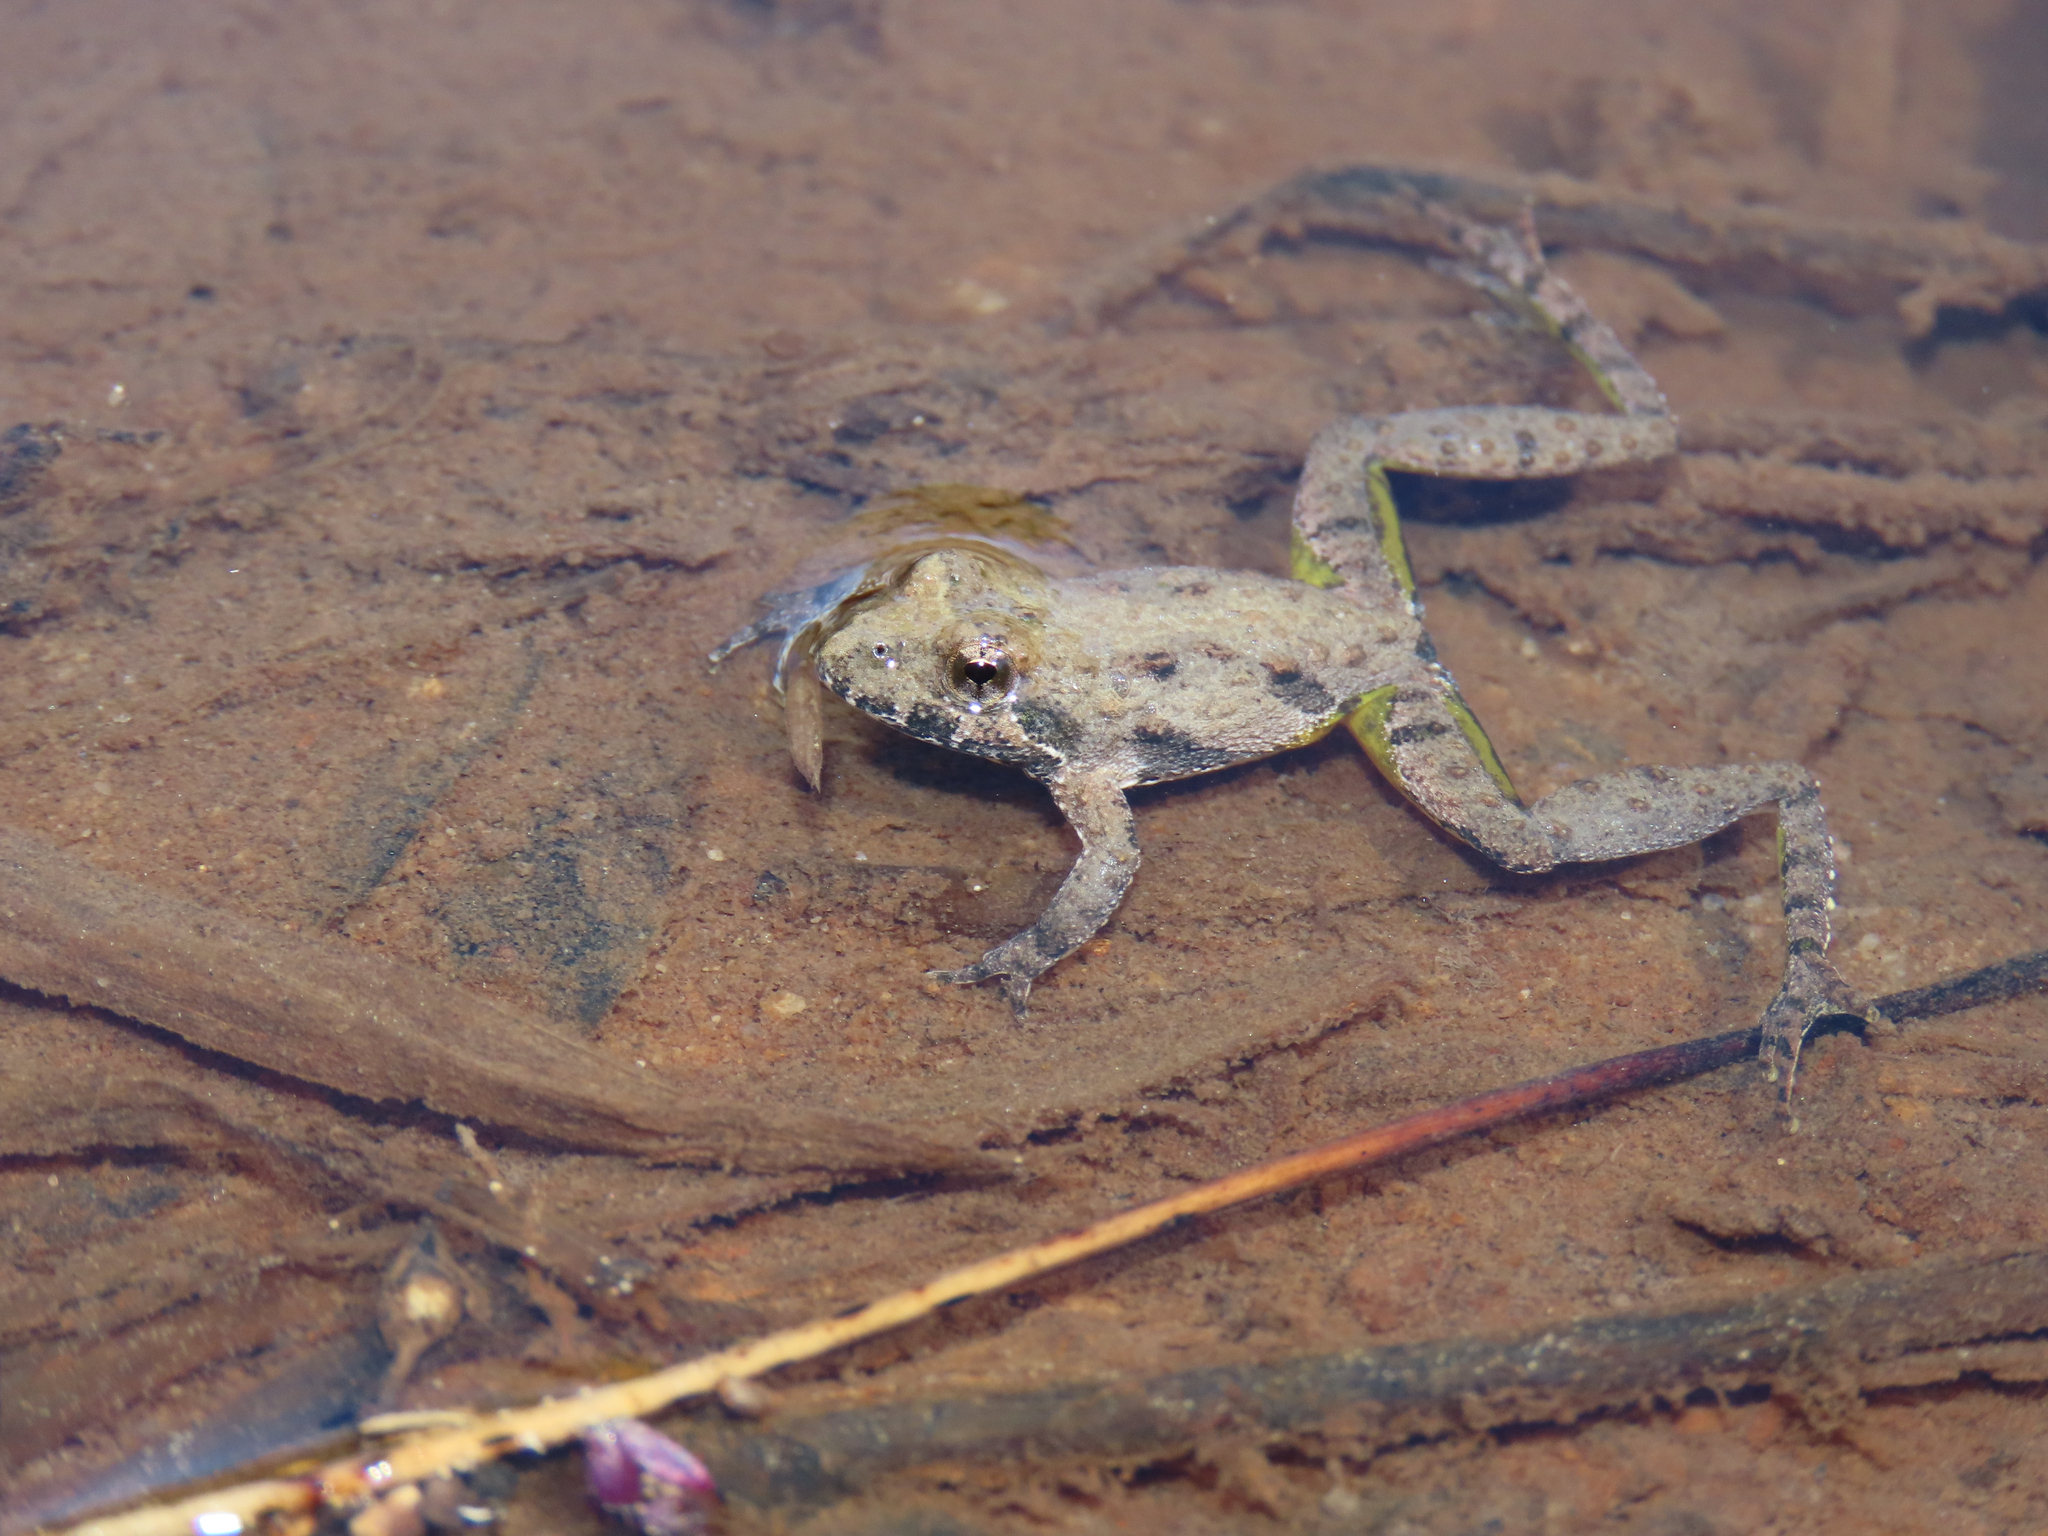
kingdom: Animalia
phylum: Chordata
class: Amphibia
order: Anura
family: Hylidae
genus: Acris
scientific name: Acris crepitans
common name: Northern cricket frog
